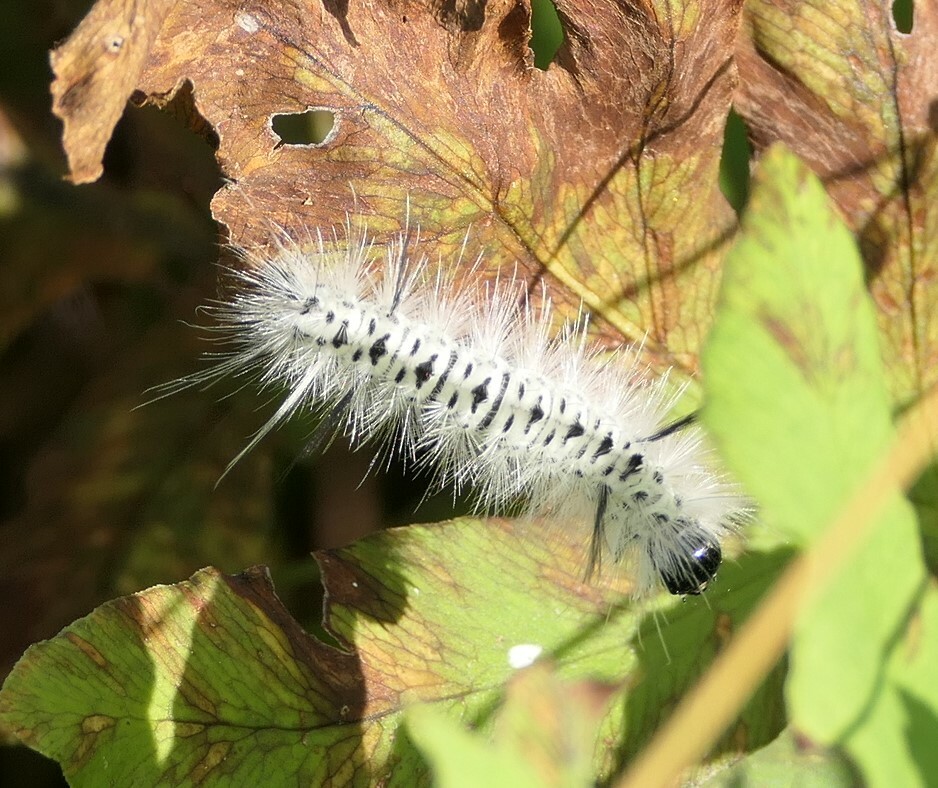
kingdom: Animalia
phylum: Arthropoda
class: Insecta
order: Lepidoptera
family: Erebidae
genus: Lophocampa
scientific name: Lophocampa caryae
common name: Hickory tussock moth
